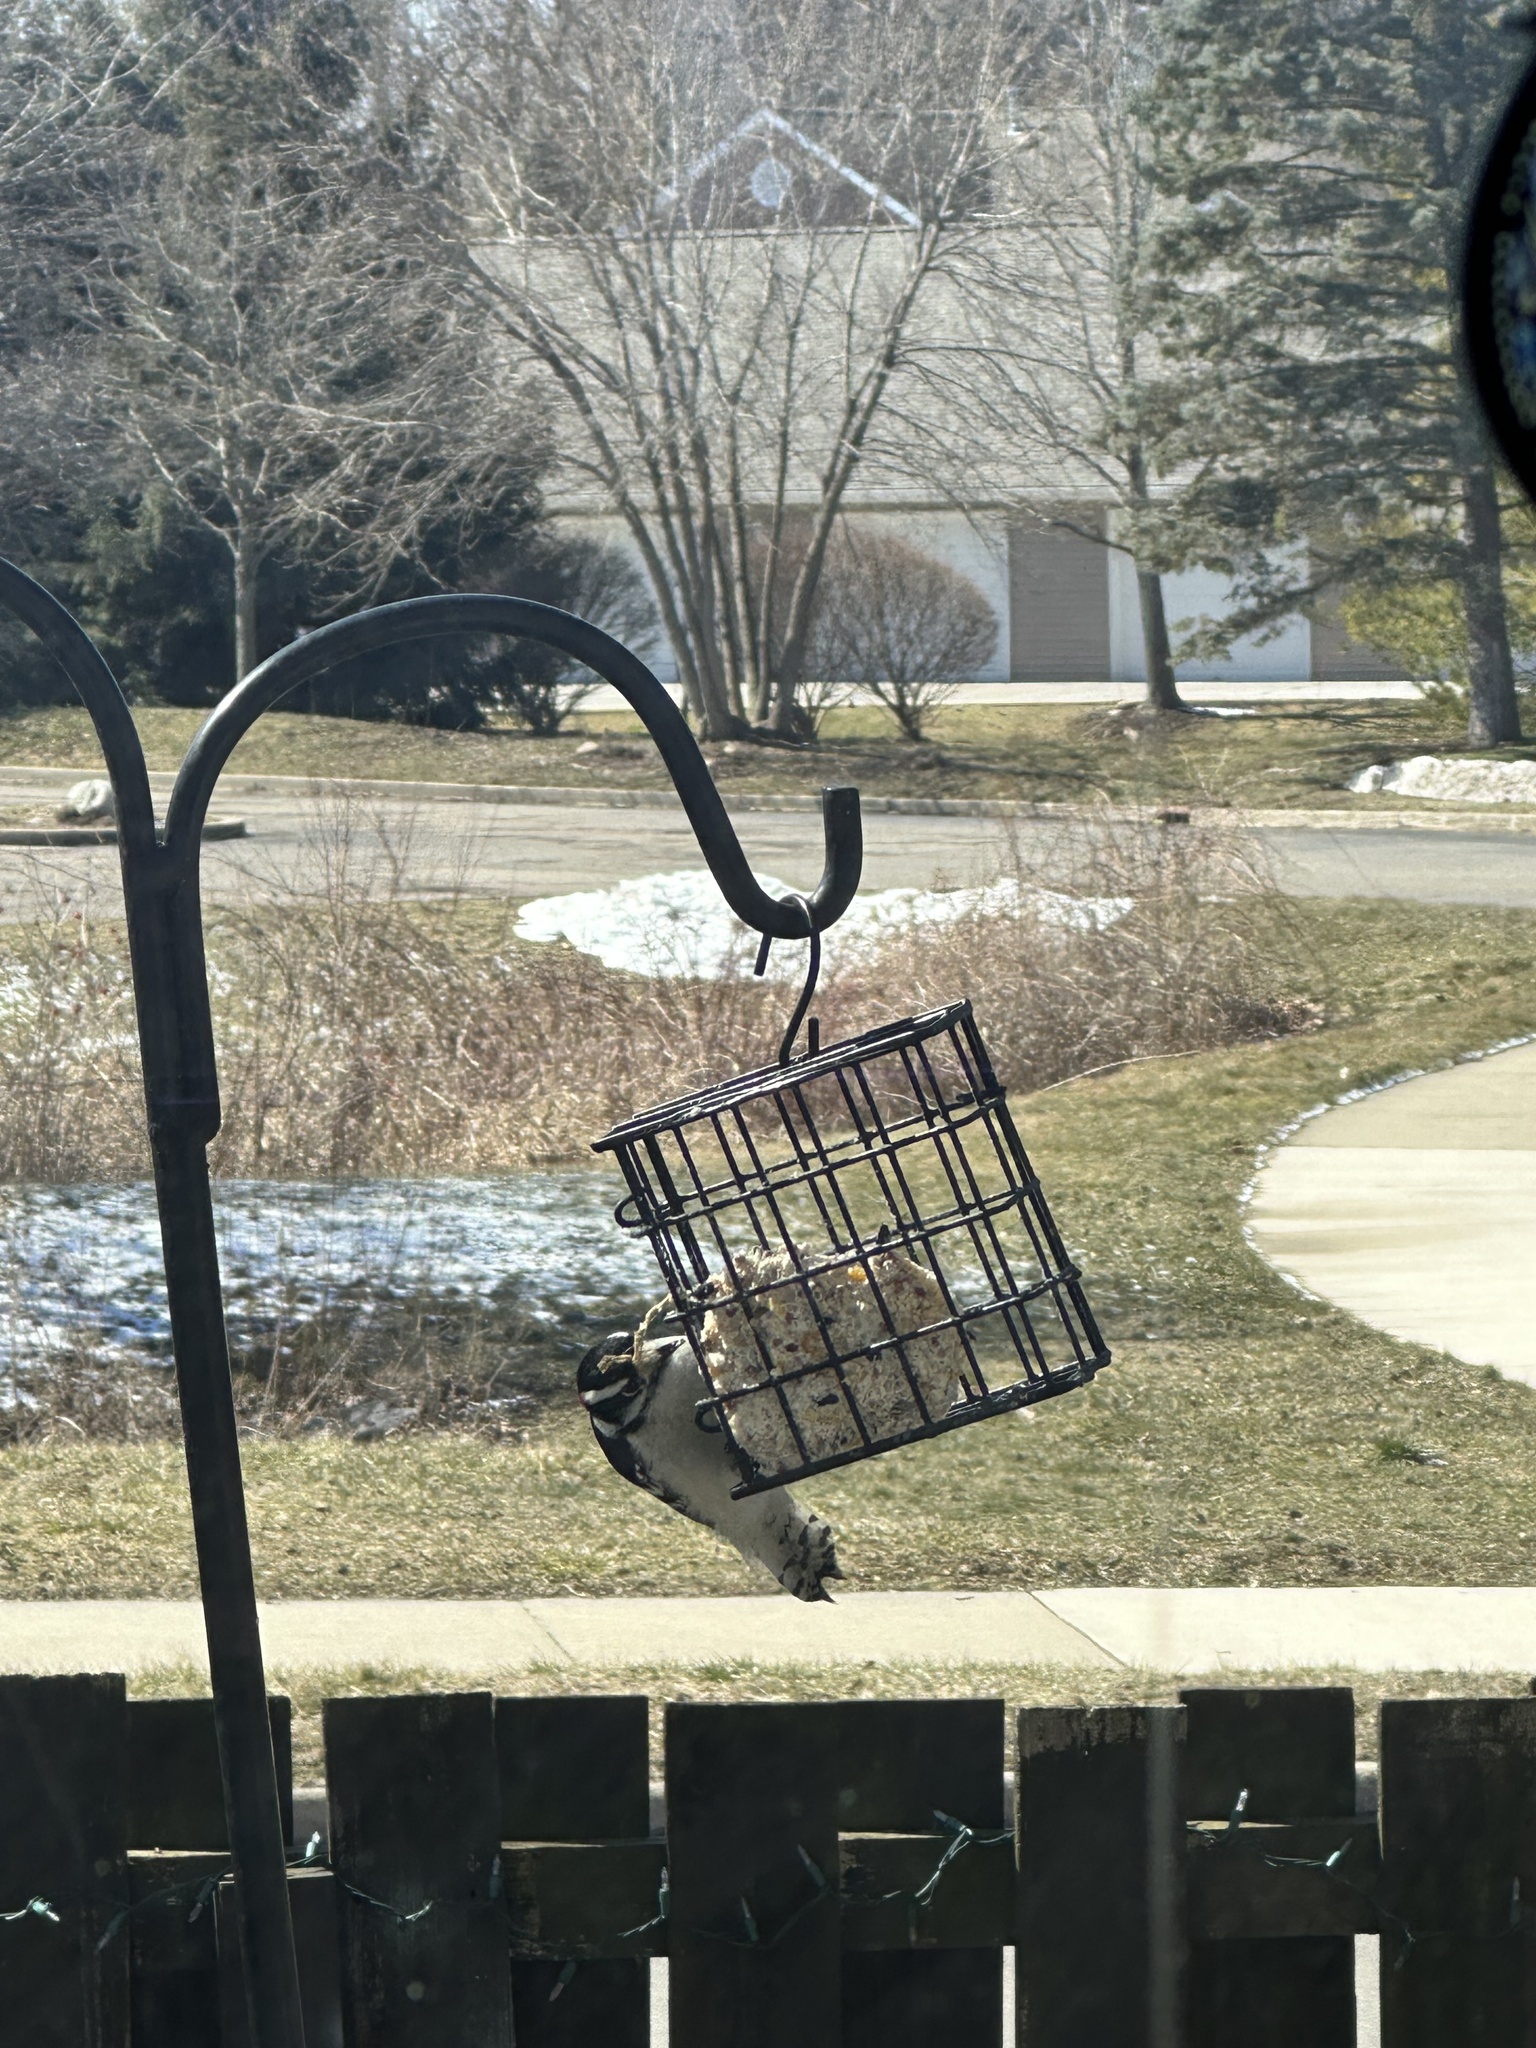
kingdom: Animalia
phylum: Chordata
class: Aves
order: Piciformes
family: Picidae
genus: Dryobates
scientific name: Dryobates pubescens
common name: Downy woodpecker
